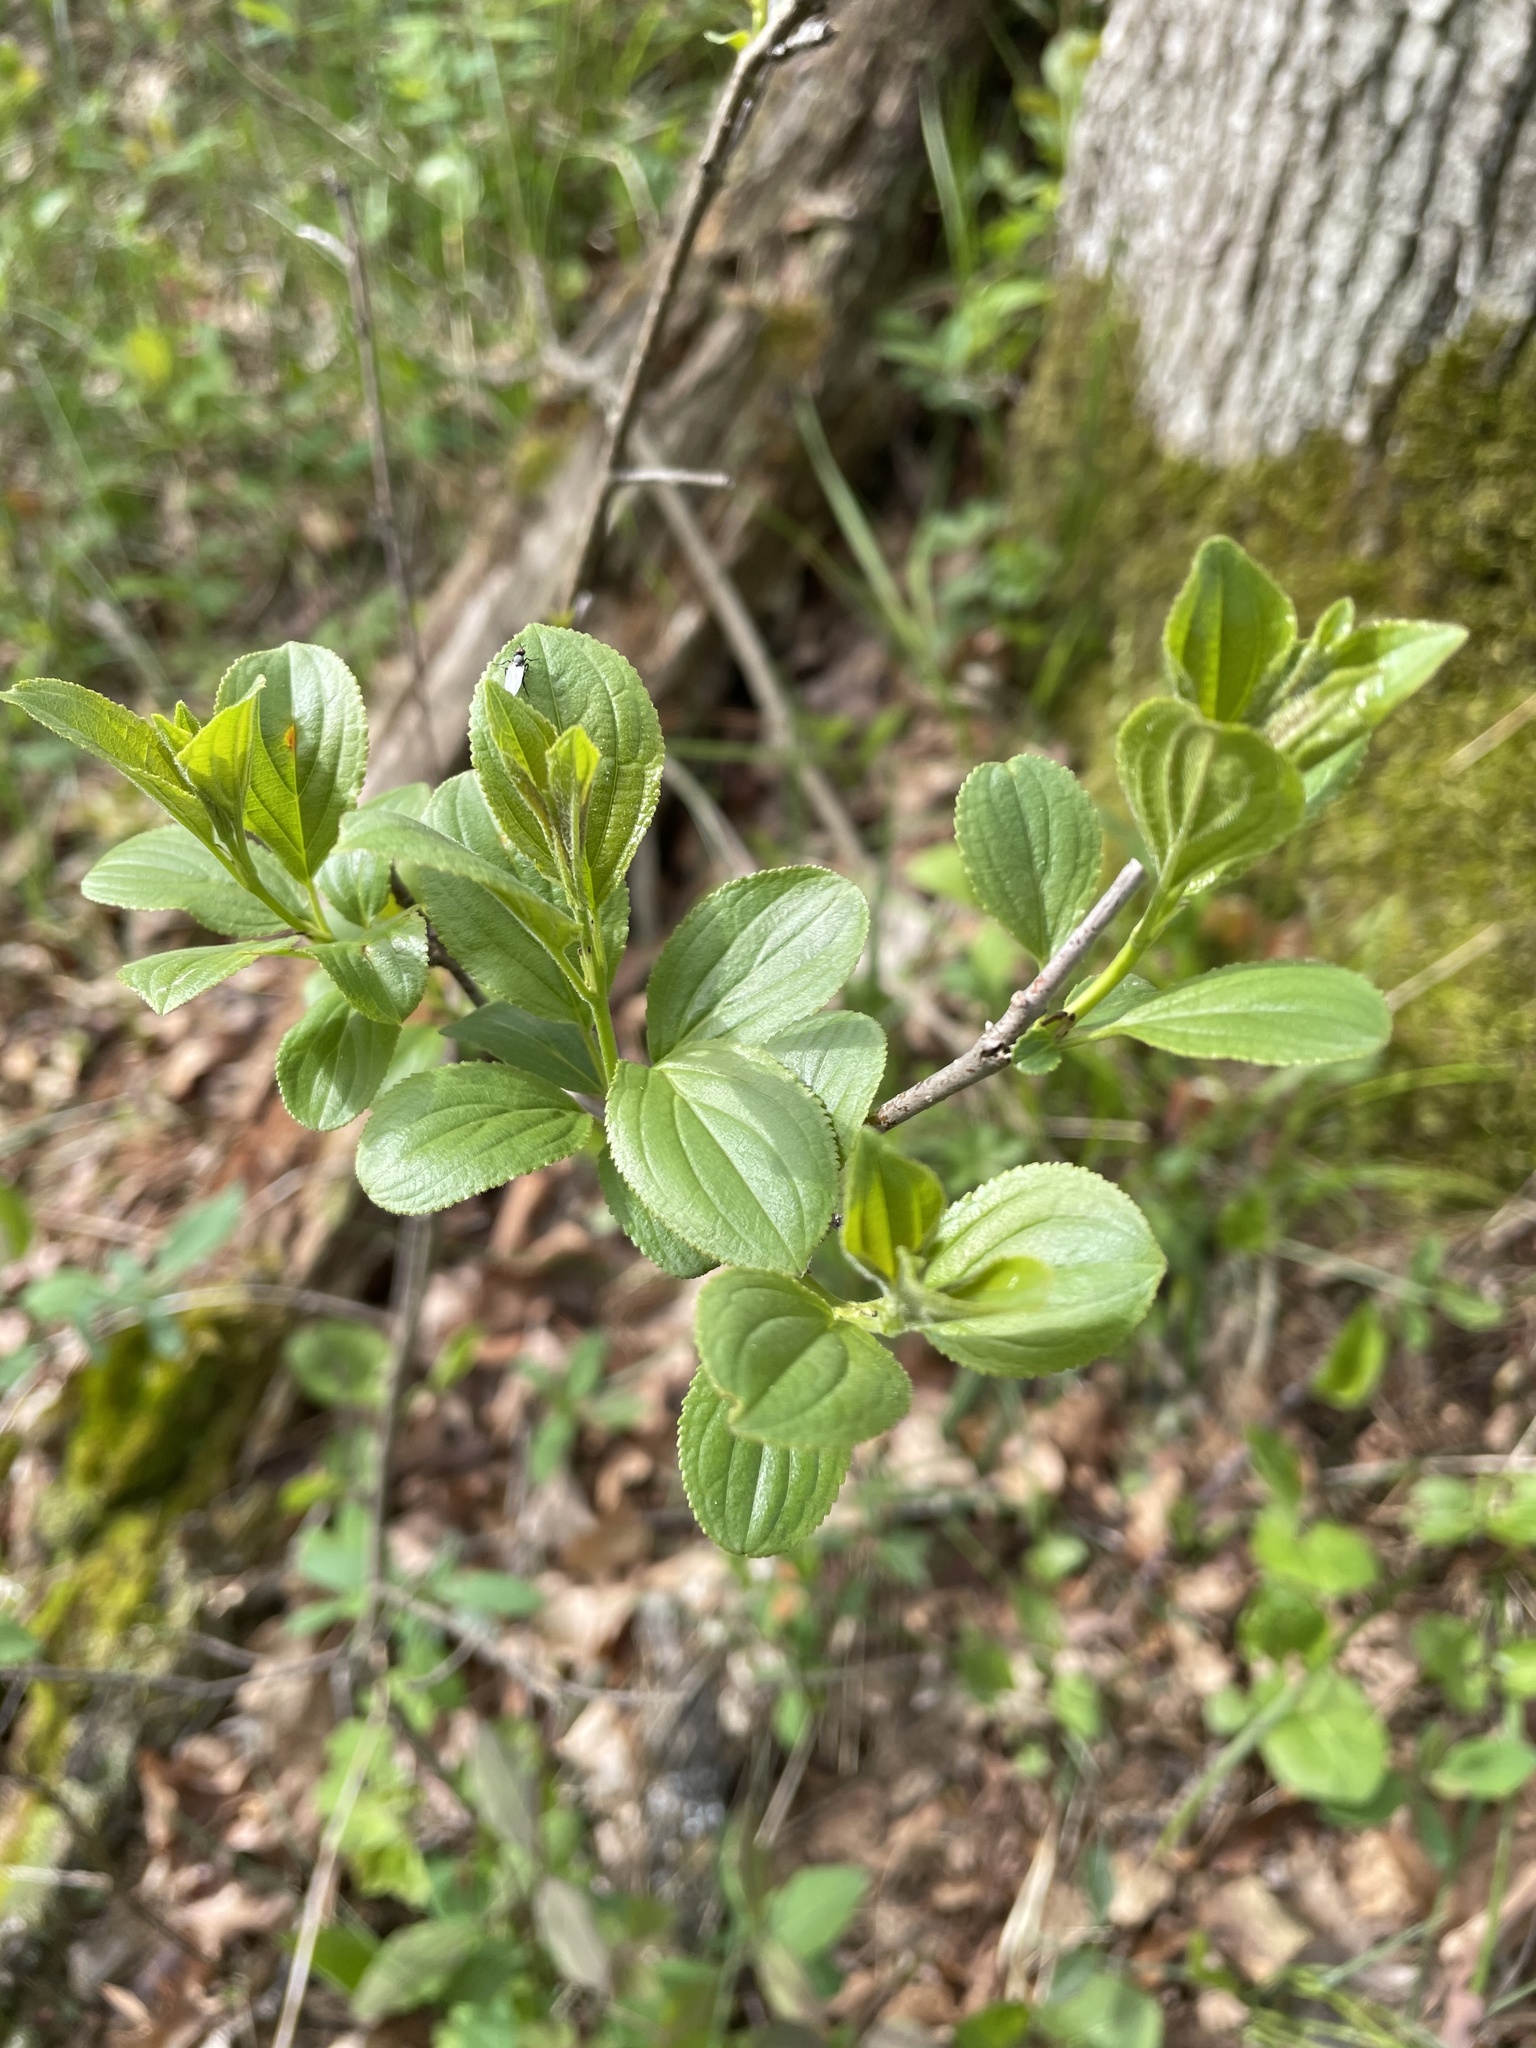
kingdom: Plantae
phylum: Tracheophyta
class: Magnoliopsida
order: Rosales
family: Rhamnaceae
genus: Rhamnus
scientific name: Rhamnus cathartica
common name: Common buckthorn
